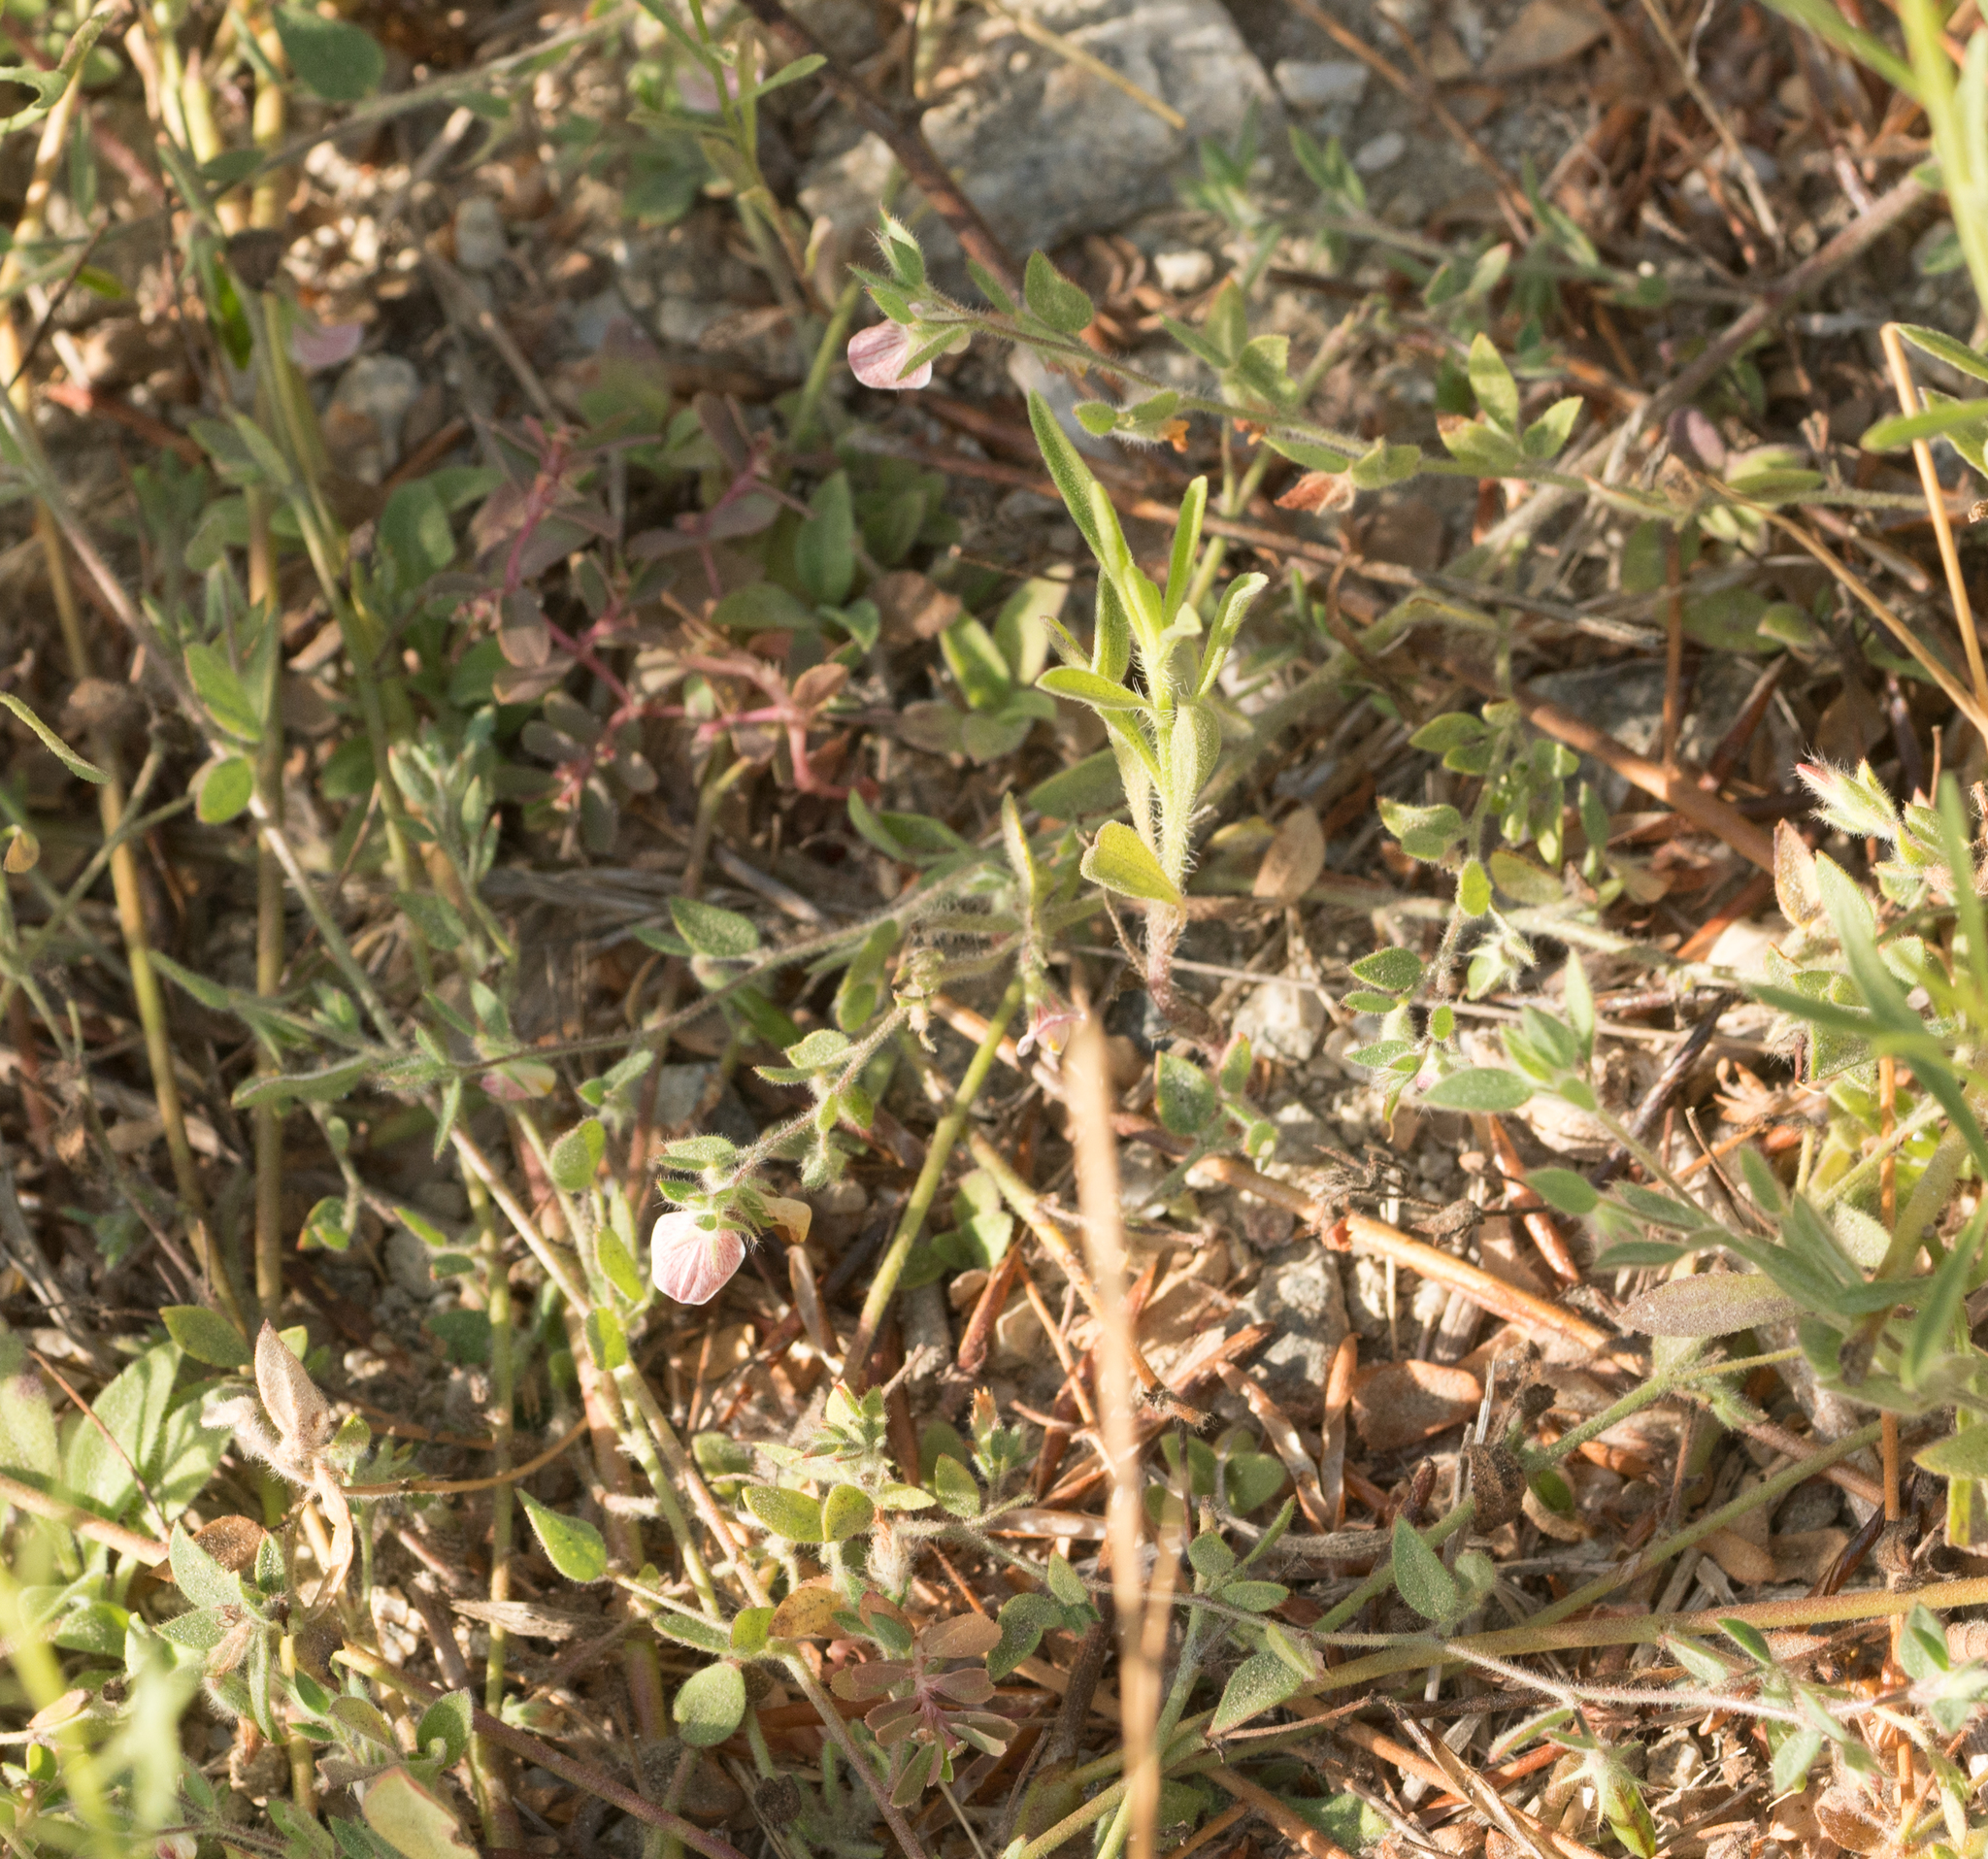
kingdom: Plantae
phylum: Tracheophyta
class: Magnoliopsida
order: Fabales
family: Fabaceae
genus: Acmispon
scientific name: Acmispon americanus
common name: American bird's-foot trefoil
